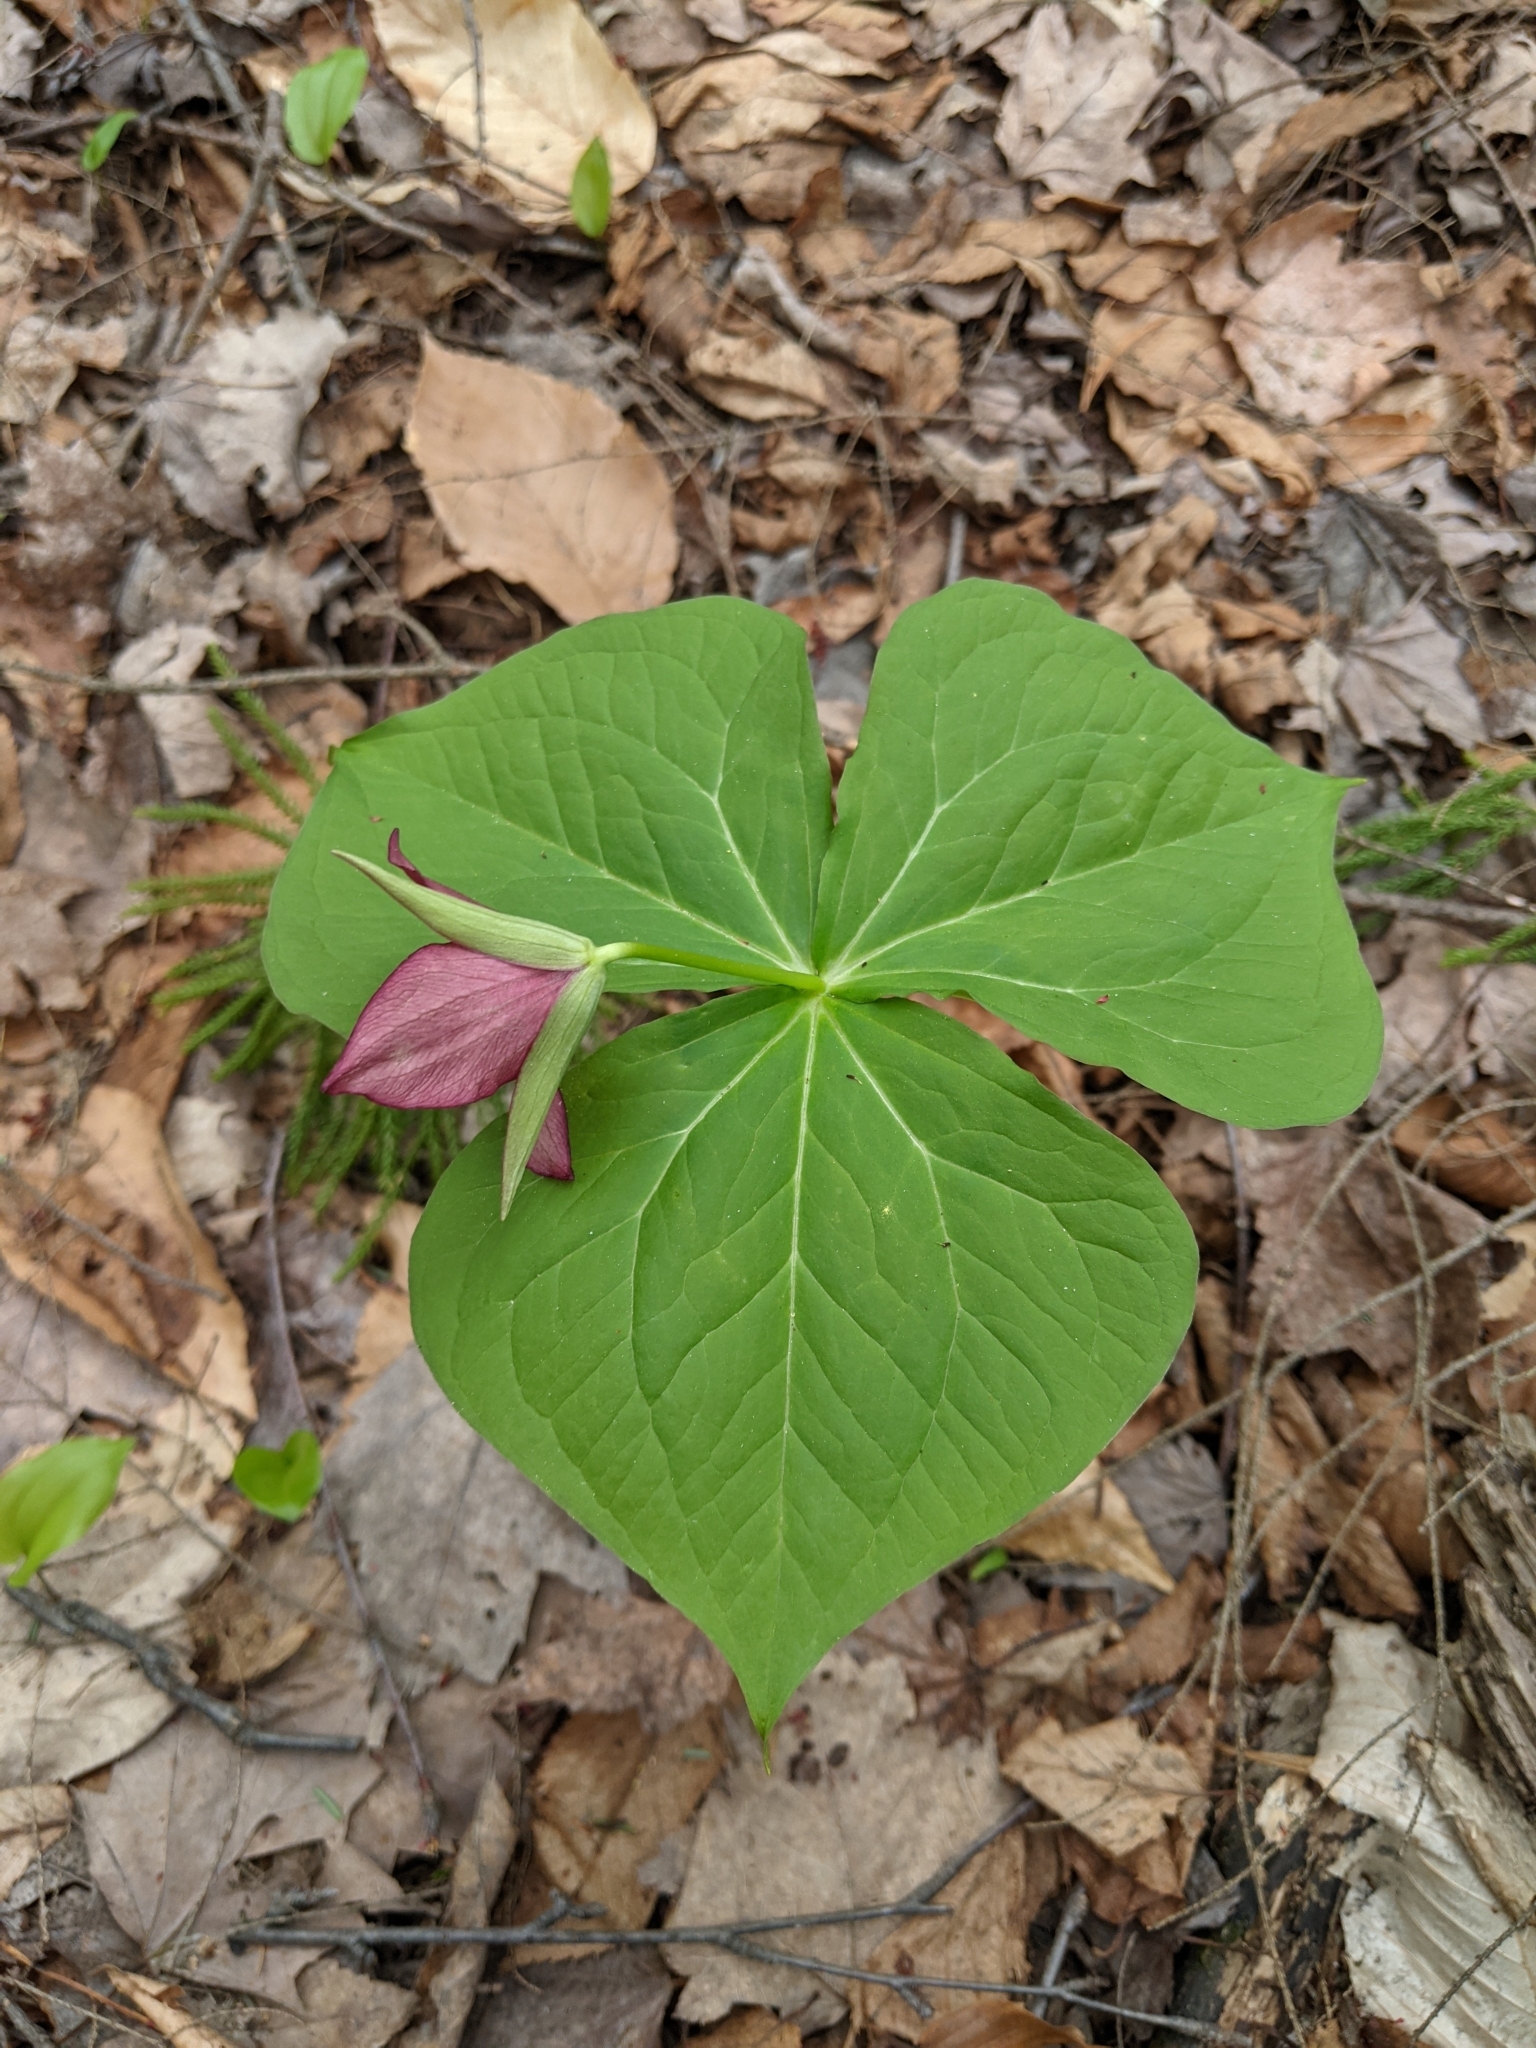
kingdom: Plantae
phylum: Tracheophyta
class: Liliopsida
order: Liliales
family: Melanthiaceae
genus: Trillium
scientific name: Trillium erectum
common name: Purple trillium
